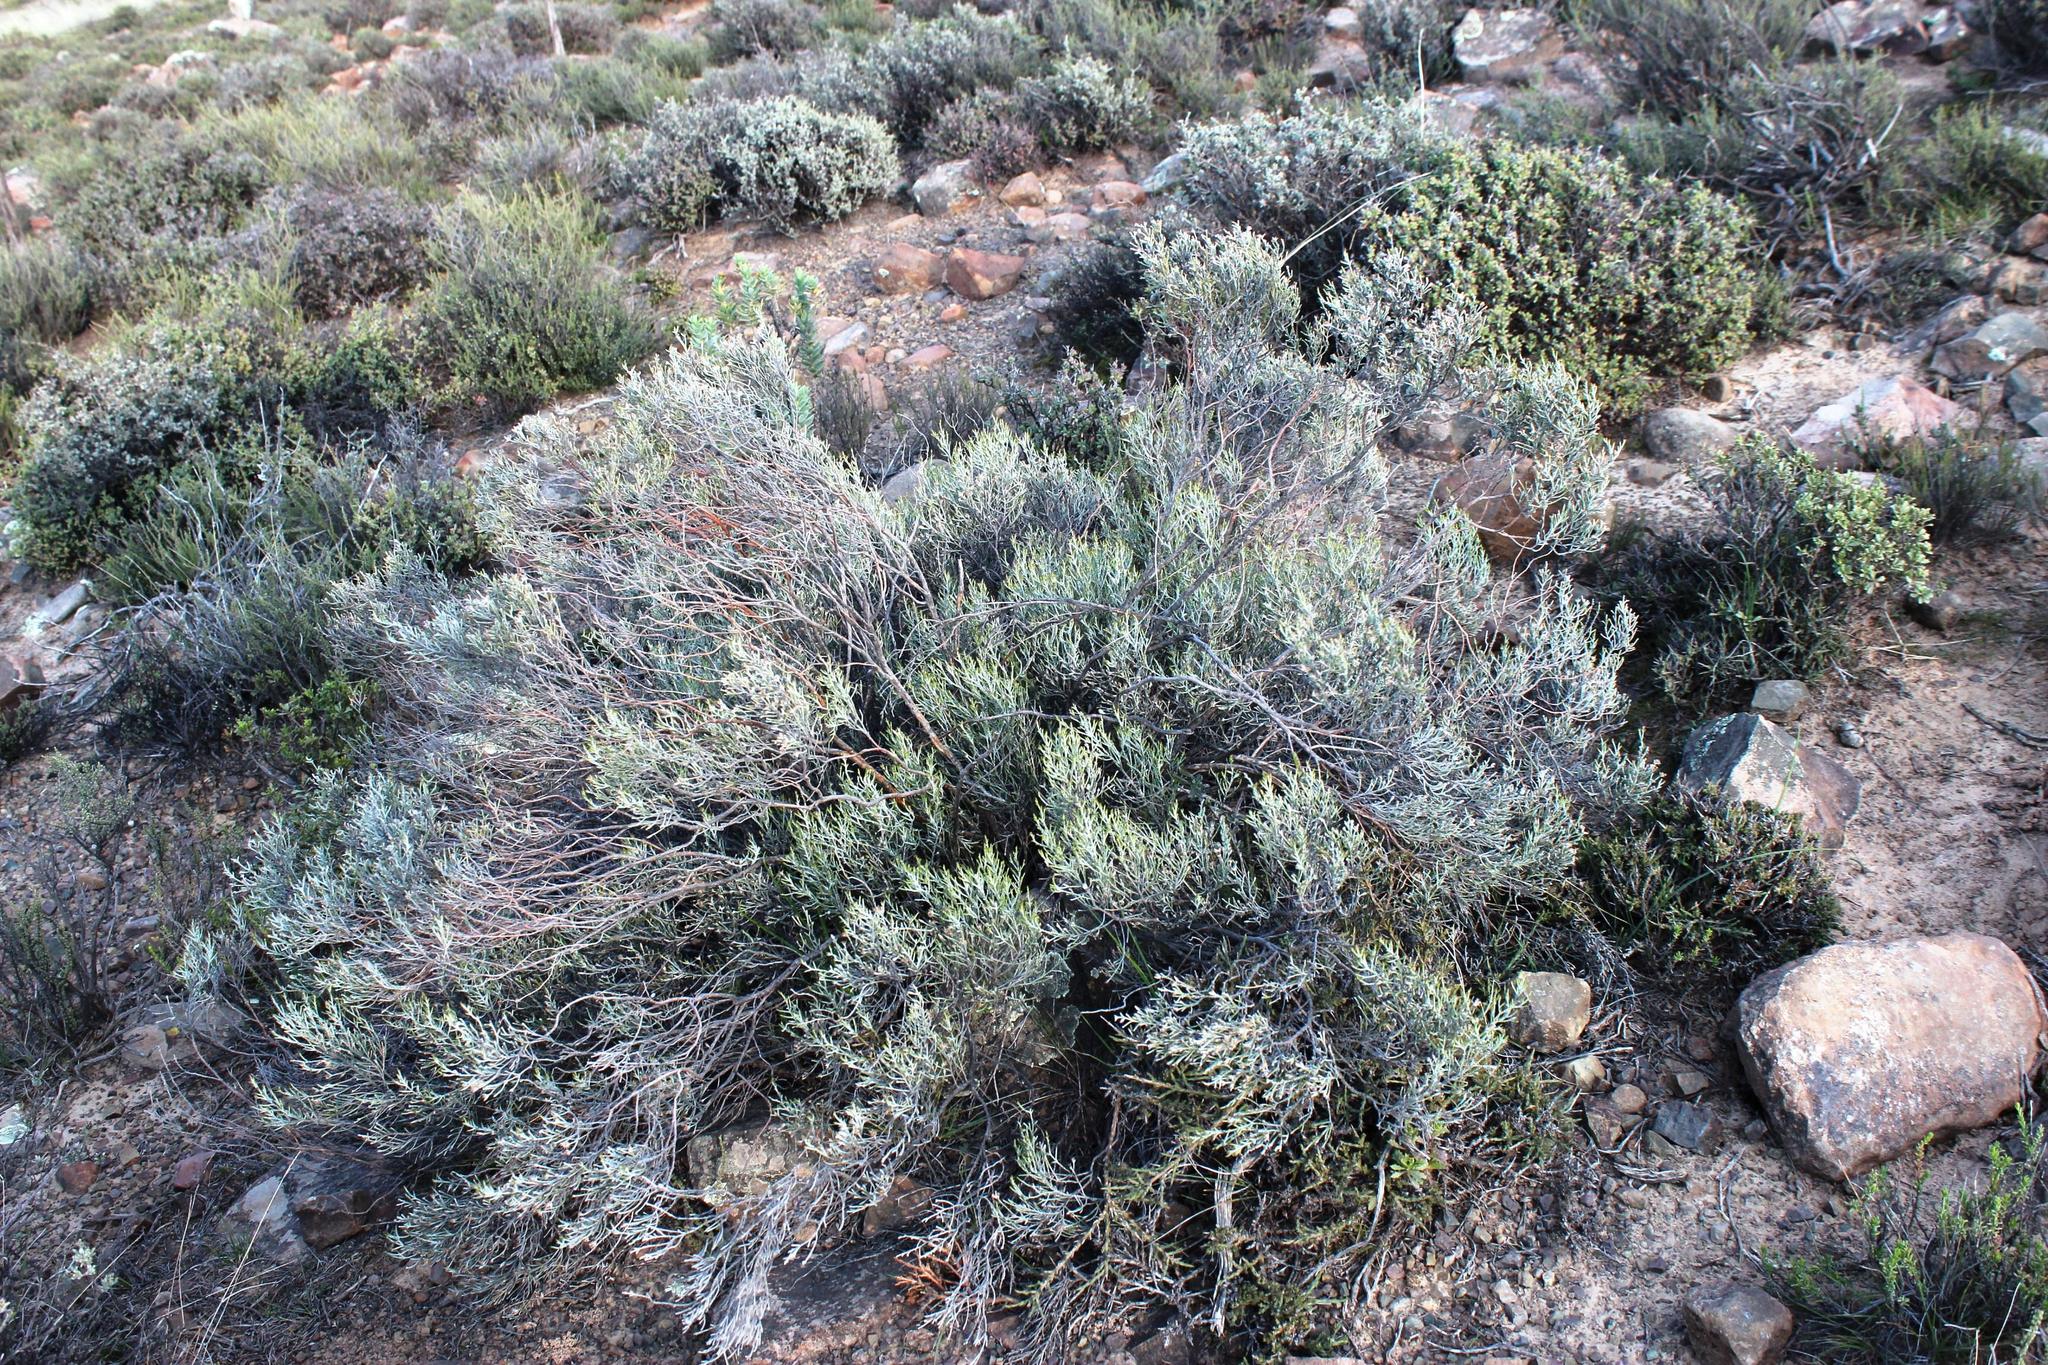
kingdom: Plantae
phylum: Tracheophyta
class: Magnoliopsida
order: Asterales
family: Asteraceae
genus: Dicerothamnus
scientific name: Dicerothamnus rhinocerotis
